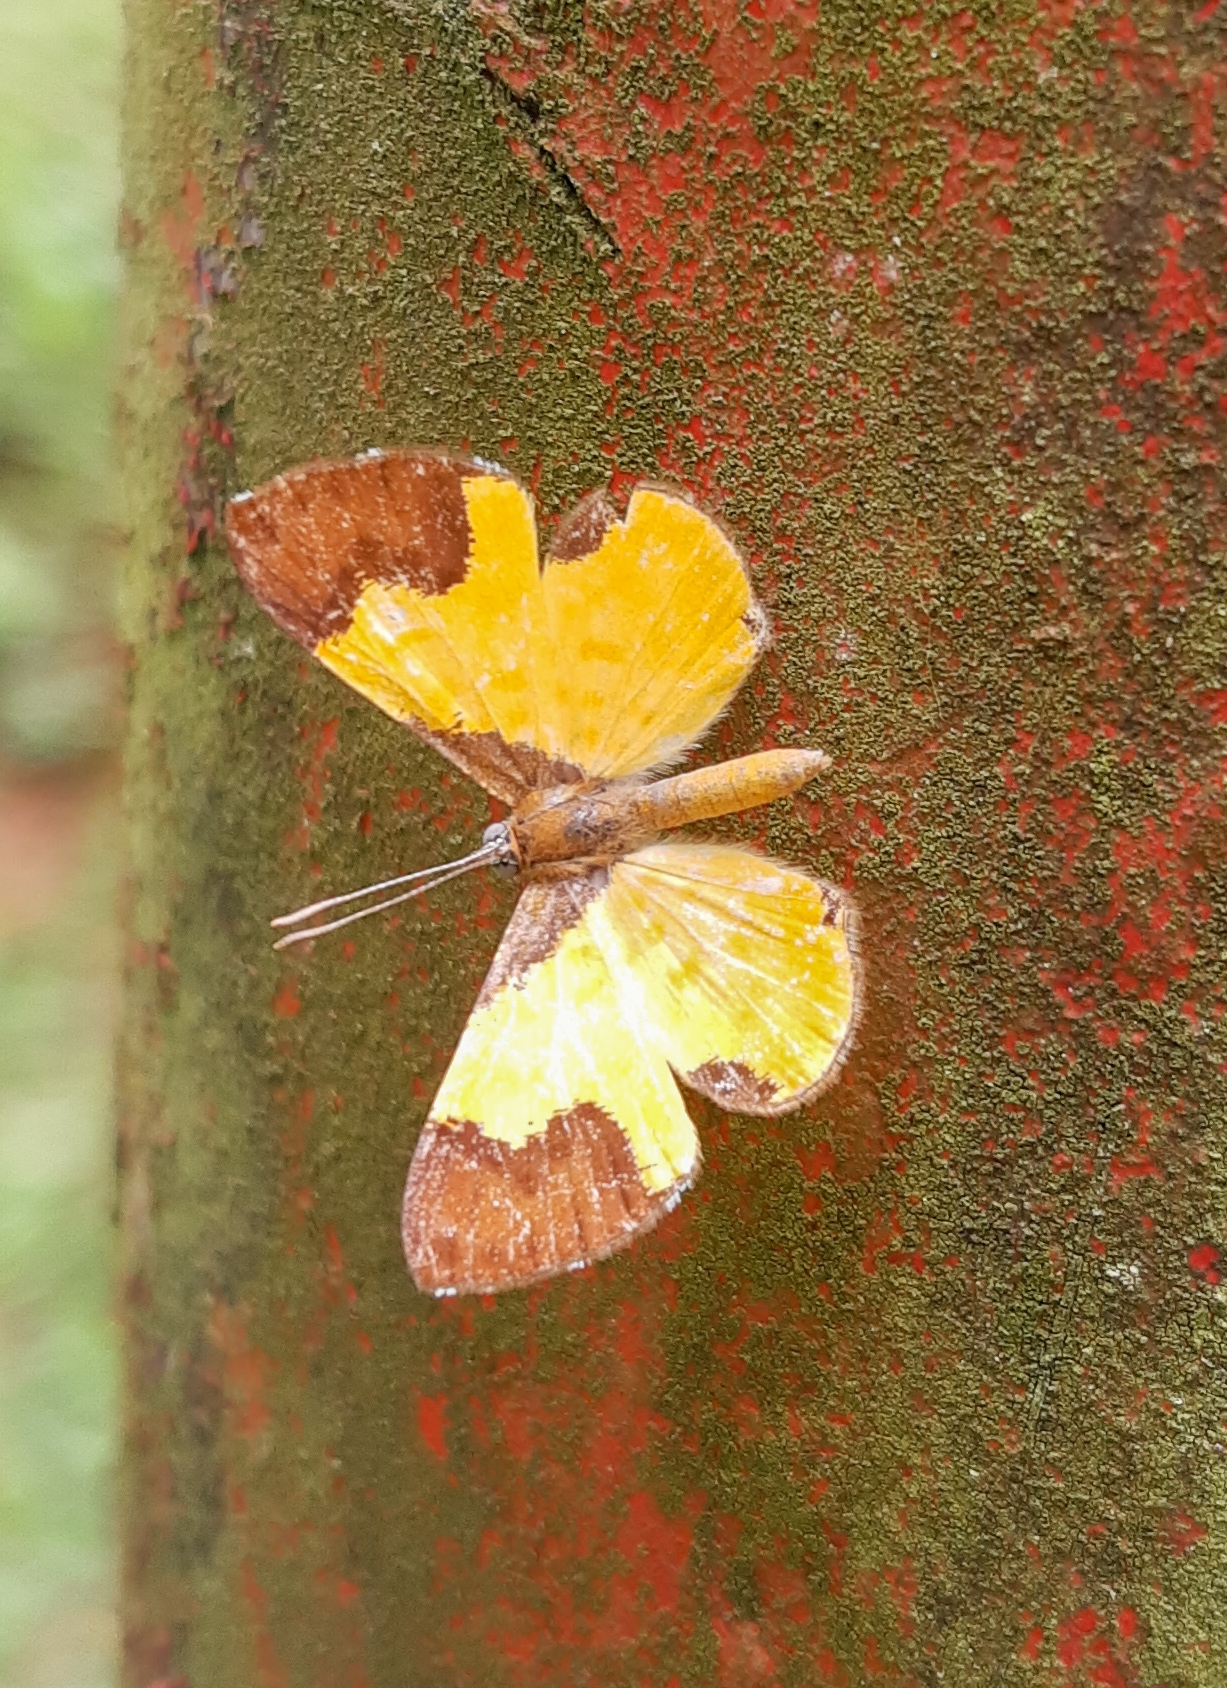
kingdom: Animalia
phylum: Arthropoda
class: Insecta
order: Lepidoptera
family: Riodinidae
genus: Echenais
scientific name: Echenais Adelotypa bolena
